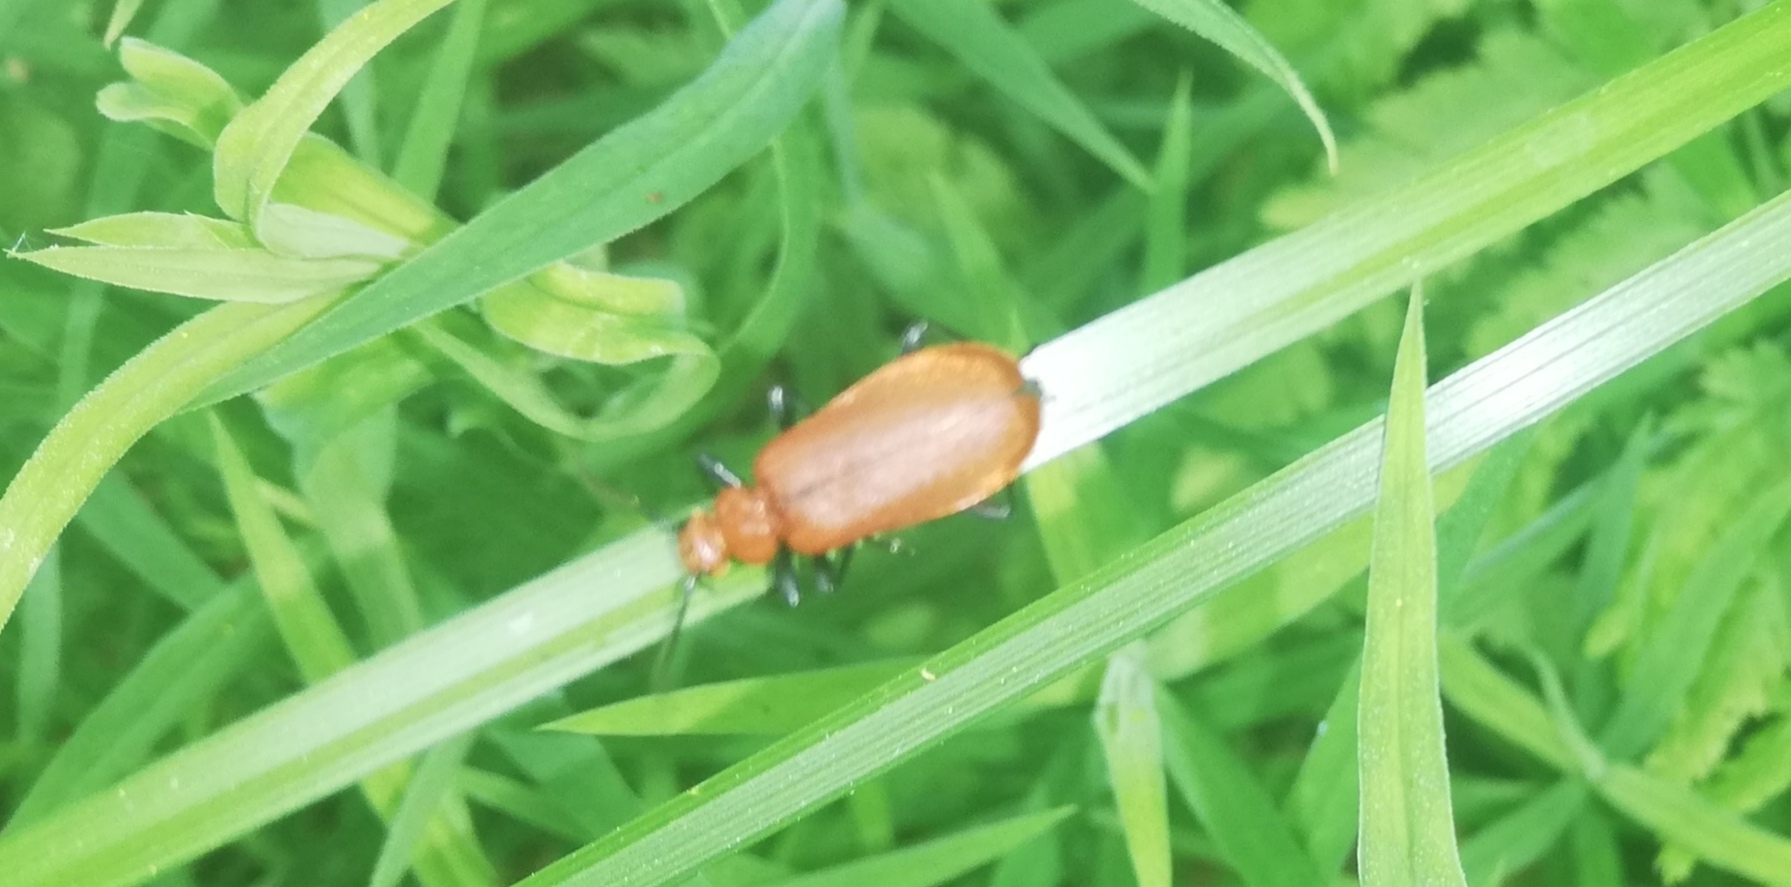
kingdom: Animalia
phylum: Arthropoda
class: Insecta
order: Coleoptera
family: Pyrochroidae
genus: Pyrochroa
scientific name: Pyrochroa serraticornis
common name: Red-headed cardinal beetle
